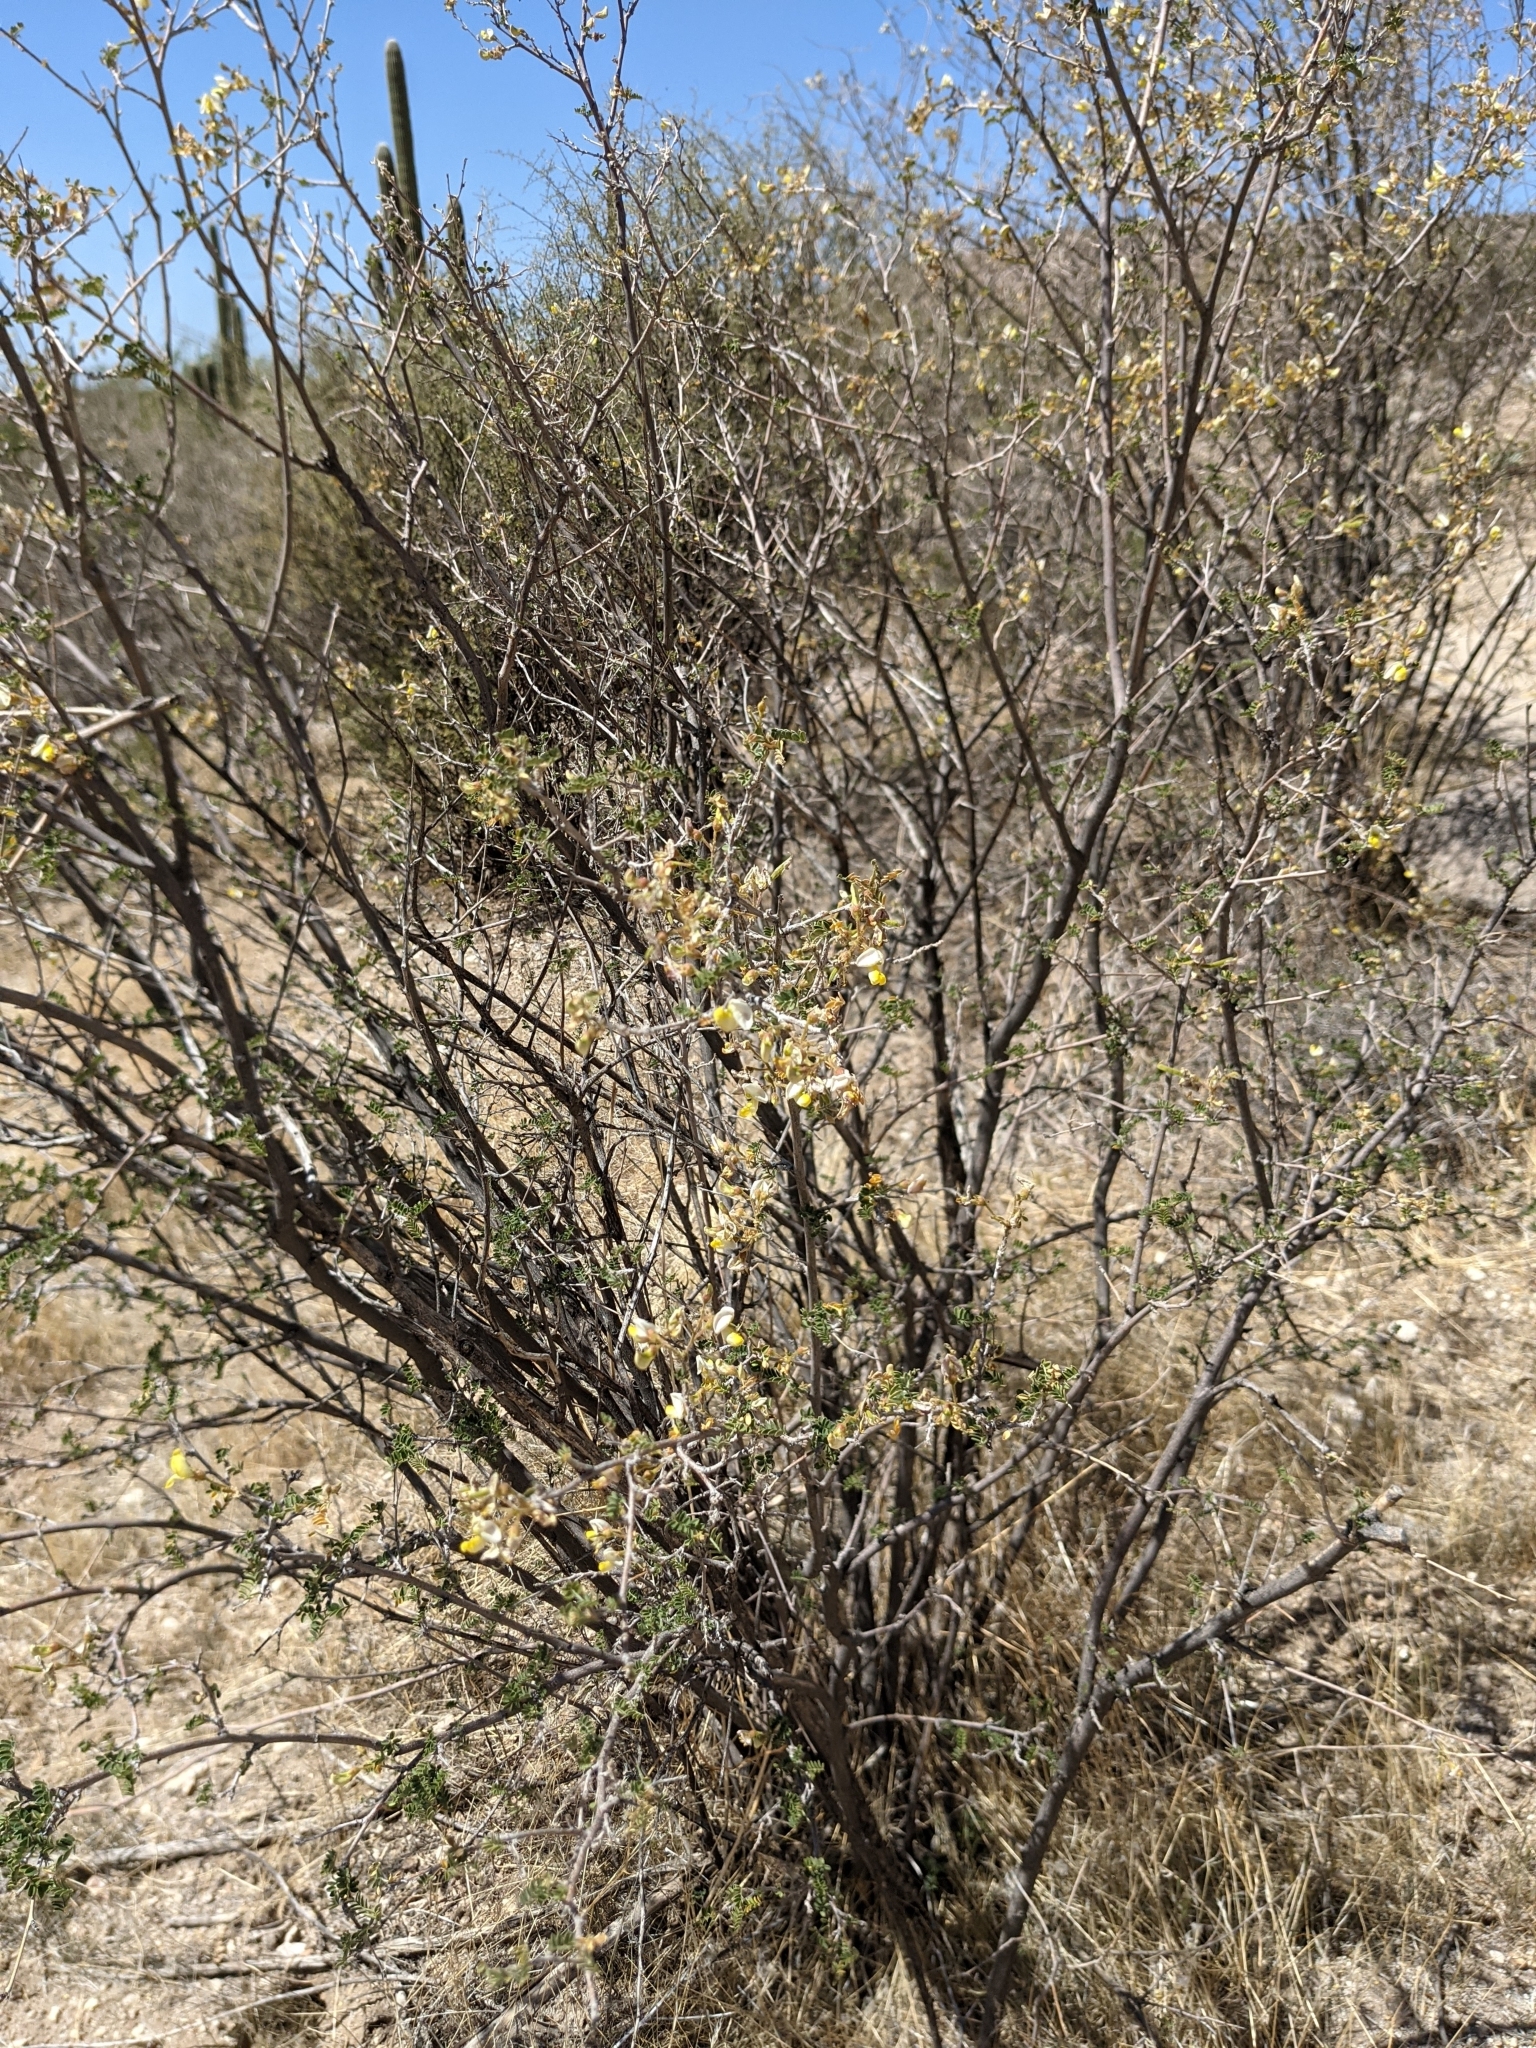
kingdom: Plantae
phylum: Tracheophyta
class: Magnoliopsida
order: Fabales
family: Fabaceae
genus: Coursetia
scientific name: Coursetia glandulosa
